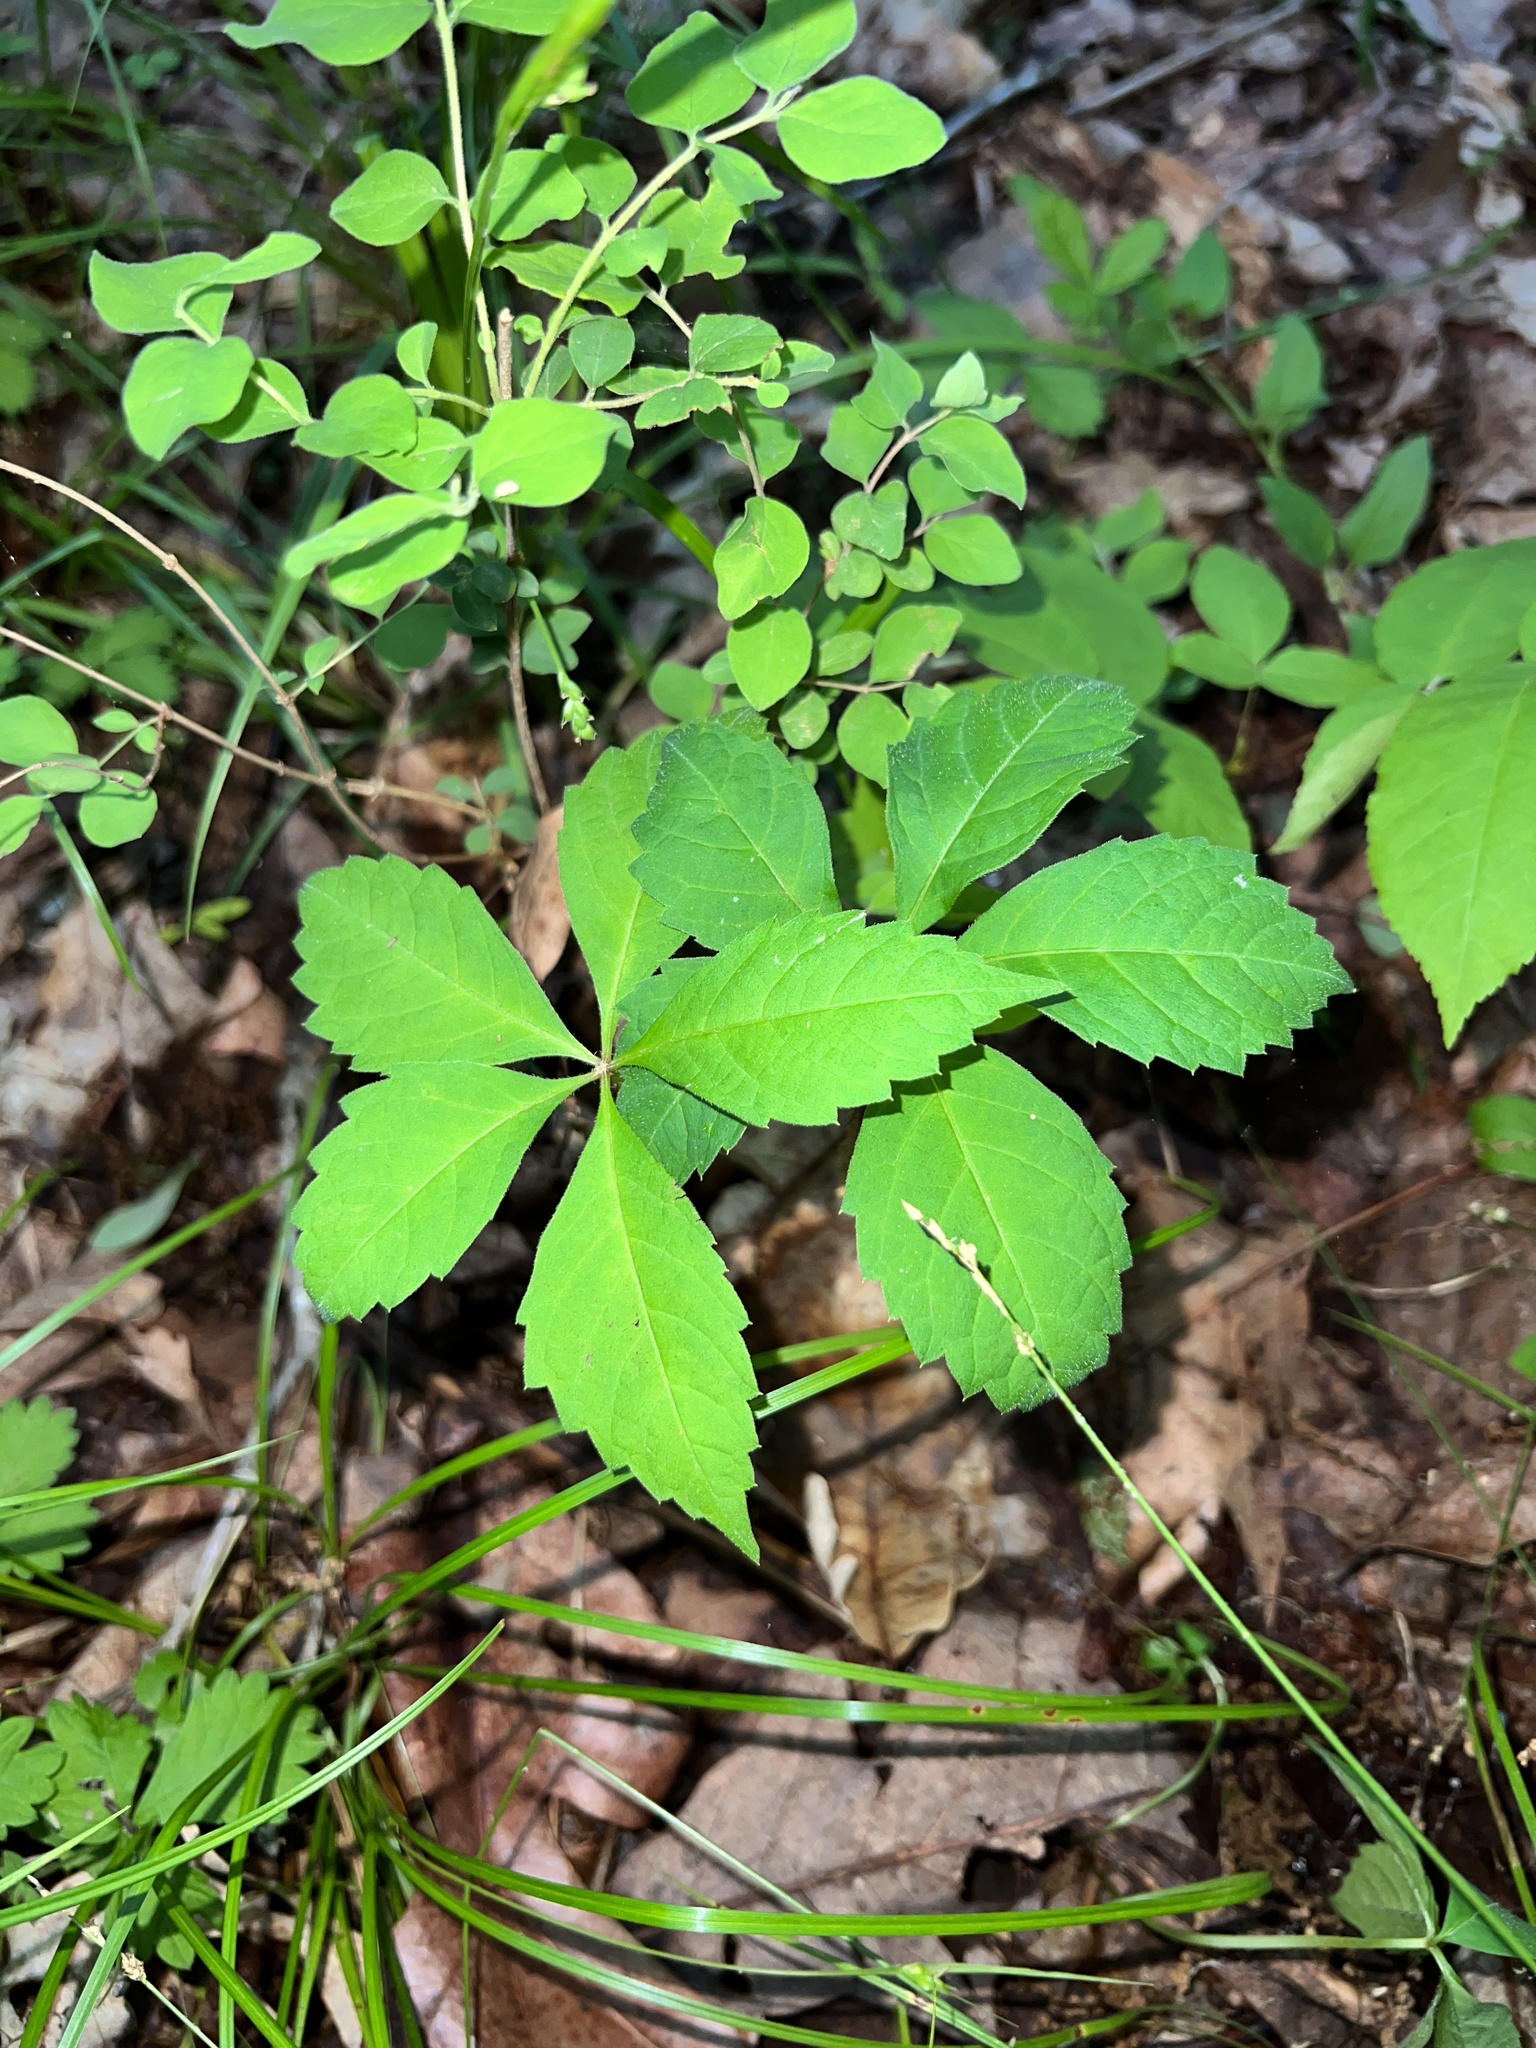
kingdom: Plantae
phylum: Tracheophyta
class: Magnoliopsida
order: Vitales
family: Vitaceae
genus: Parthenocissus
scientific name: Parthenocissus quinquefolia
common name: Virginia-creeper
